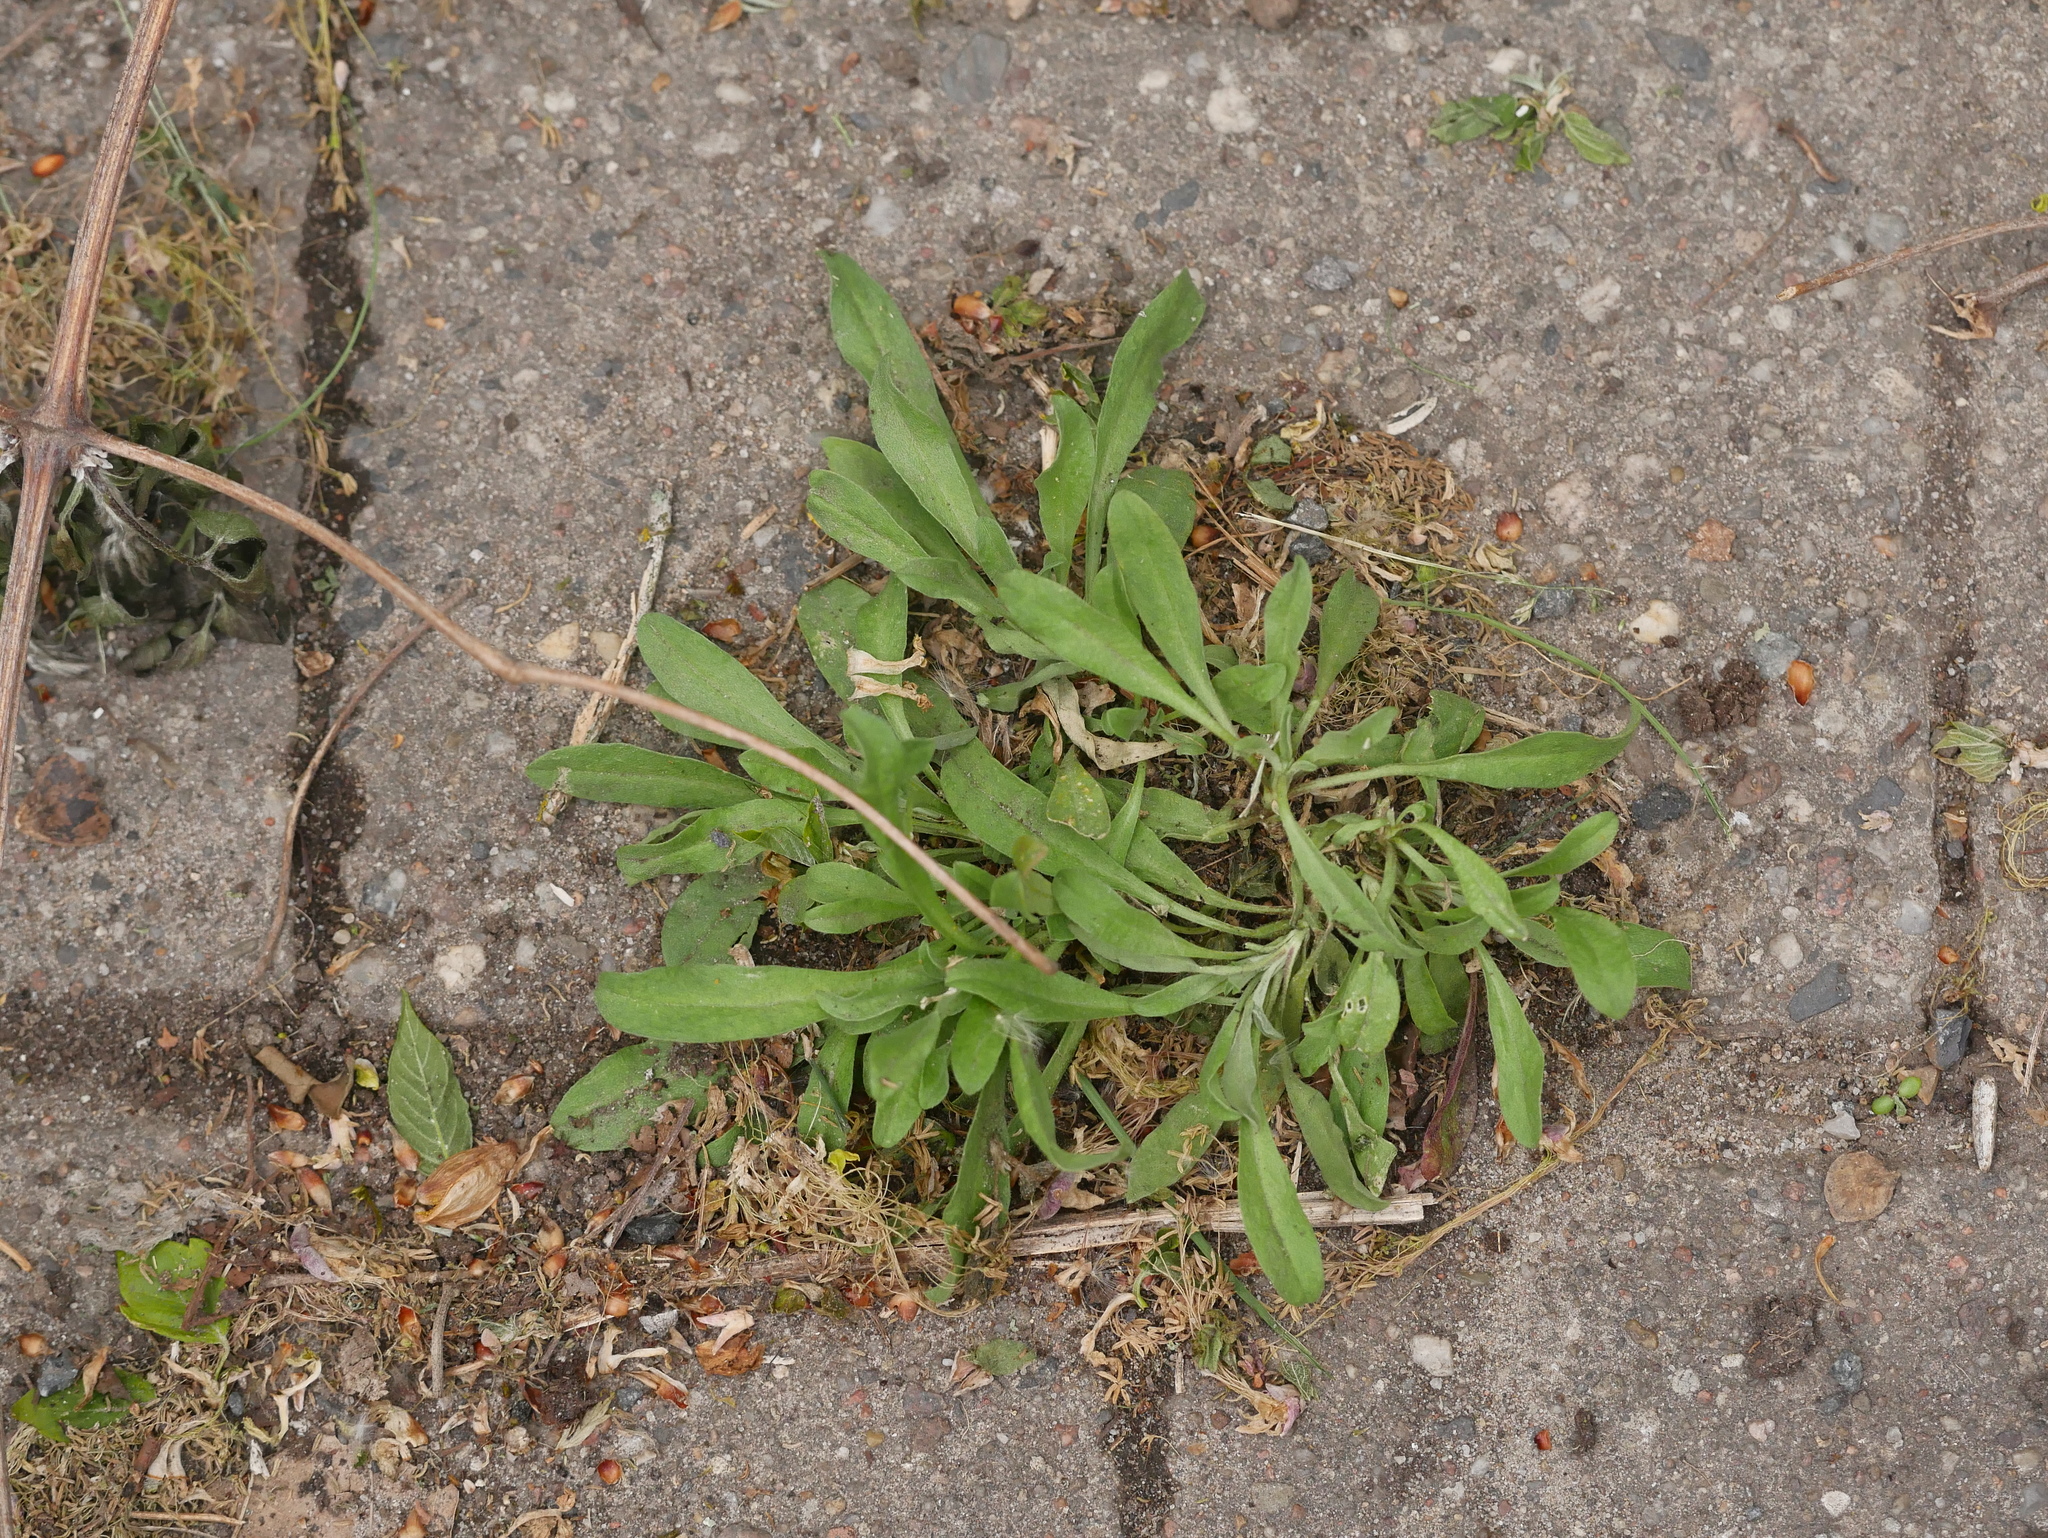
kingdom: Plantae
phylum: Tracheophyta
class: Magnoliopsida
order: Brassicales
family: Brassicaceae
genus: Berteroa
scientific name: Berteroa incana
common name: Hoary alison
